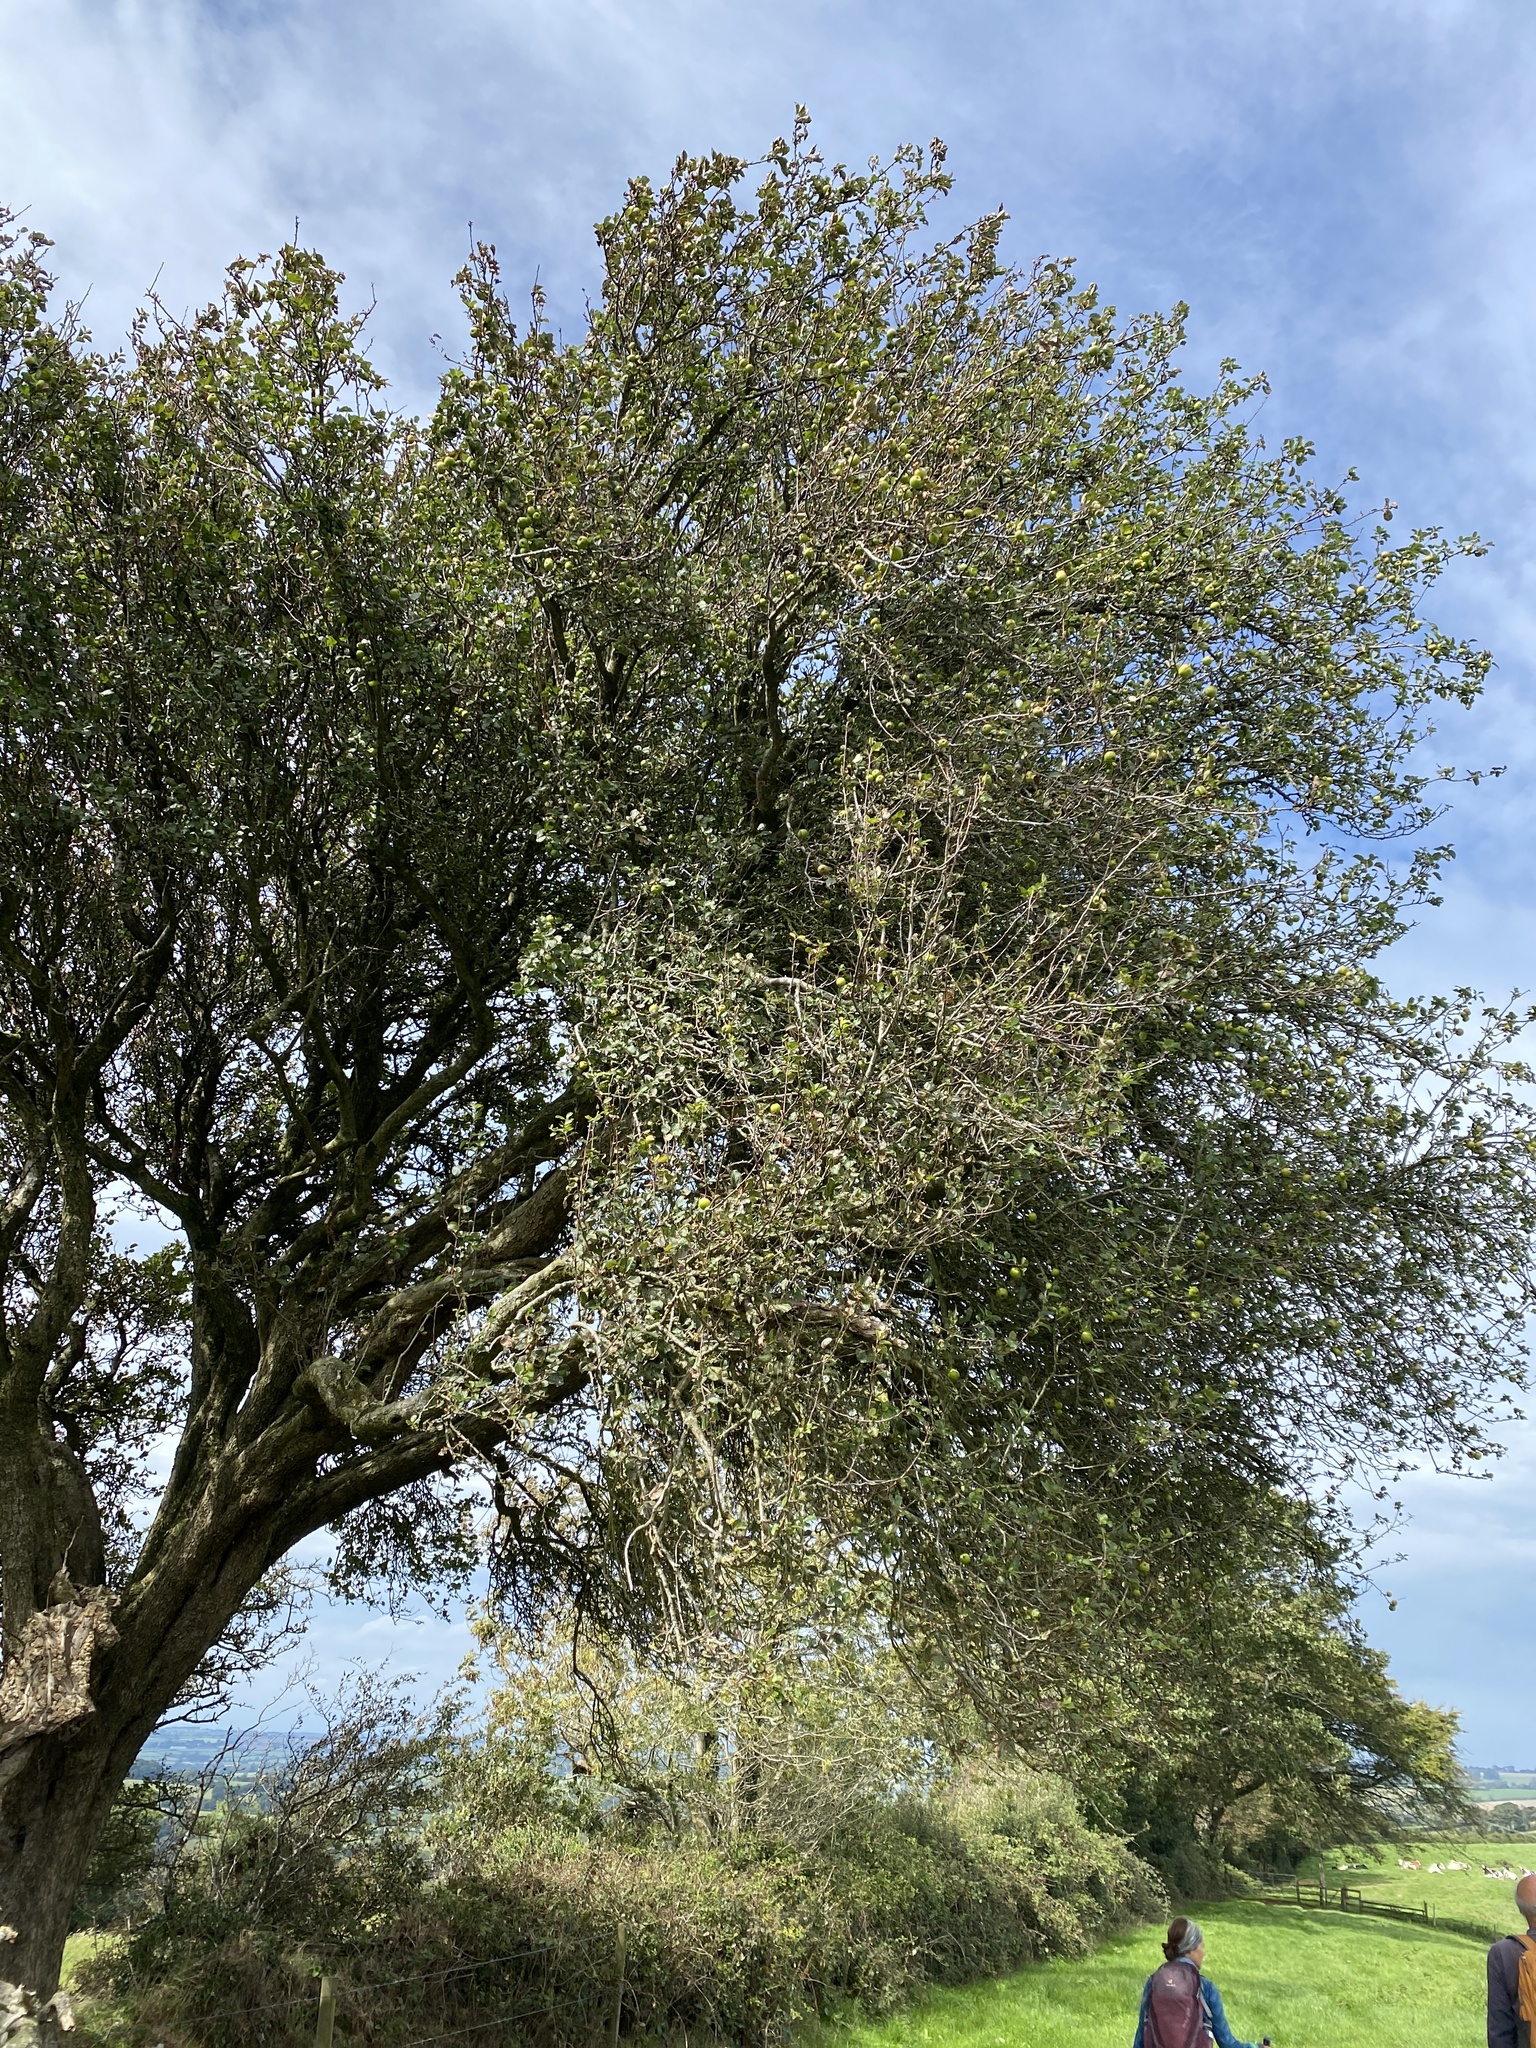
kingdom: Plantae
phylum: Tracheophyta
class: Magnoliopsida
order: Rosales
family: Rosaceae
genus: Malus
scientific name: Malus sylvestris
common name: Crab apple
